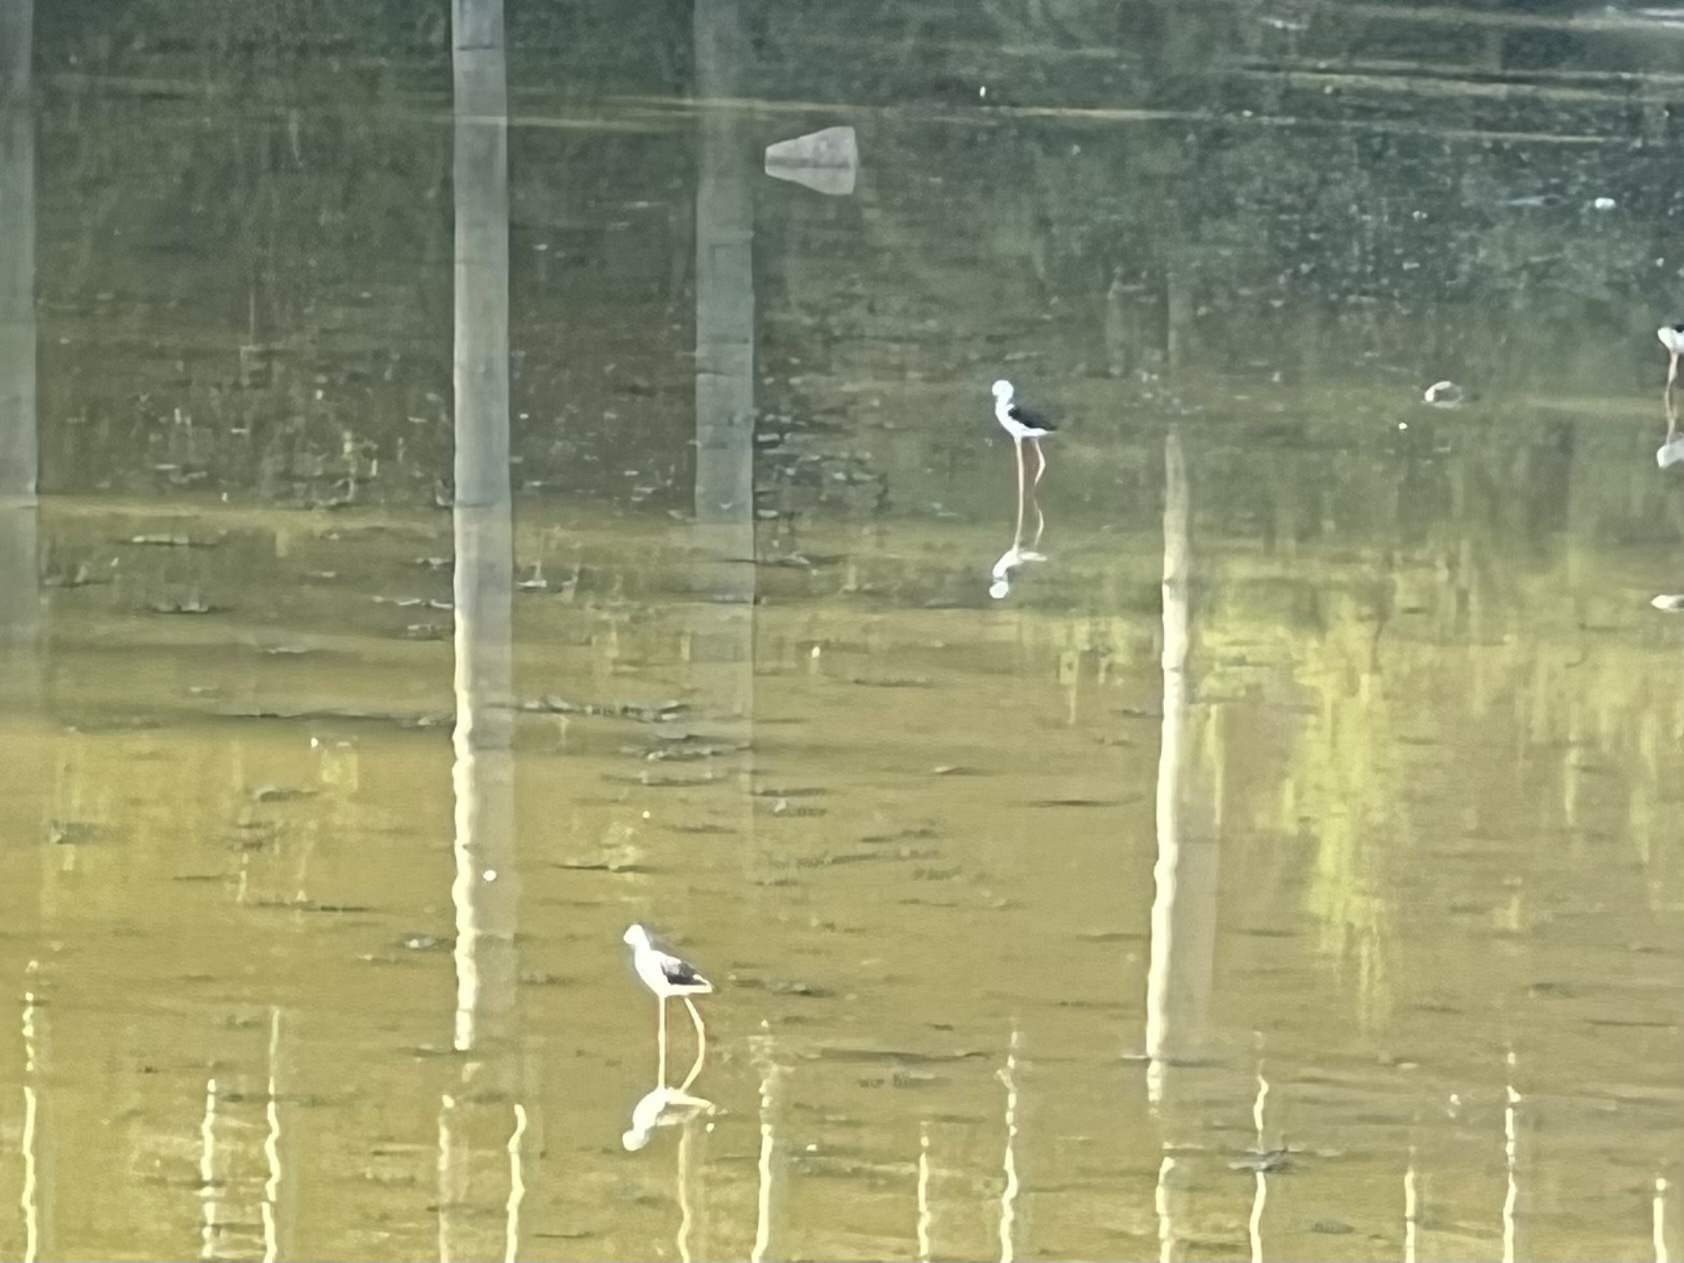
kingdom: Animalia
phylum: Chordata
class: Aves
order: Charadriiformes
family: Recurvirostridae
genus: Himantopus
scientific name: Himantopus himantopus
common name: Black-winged stilt
